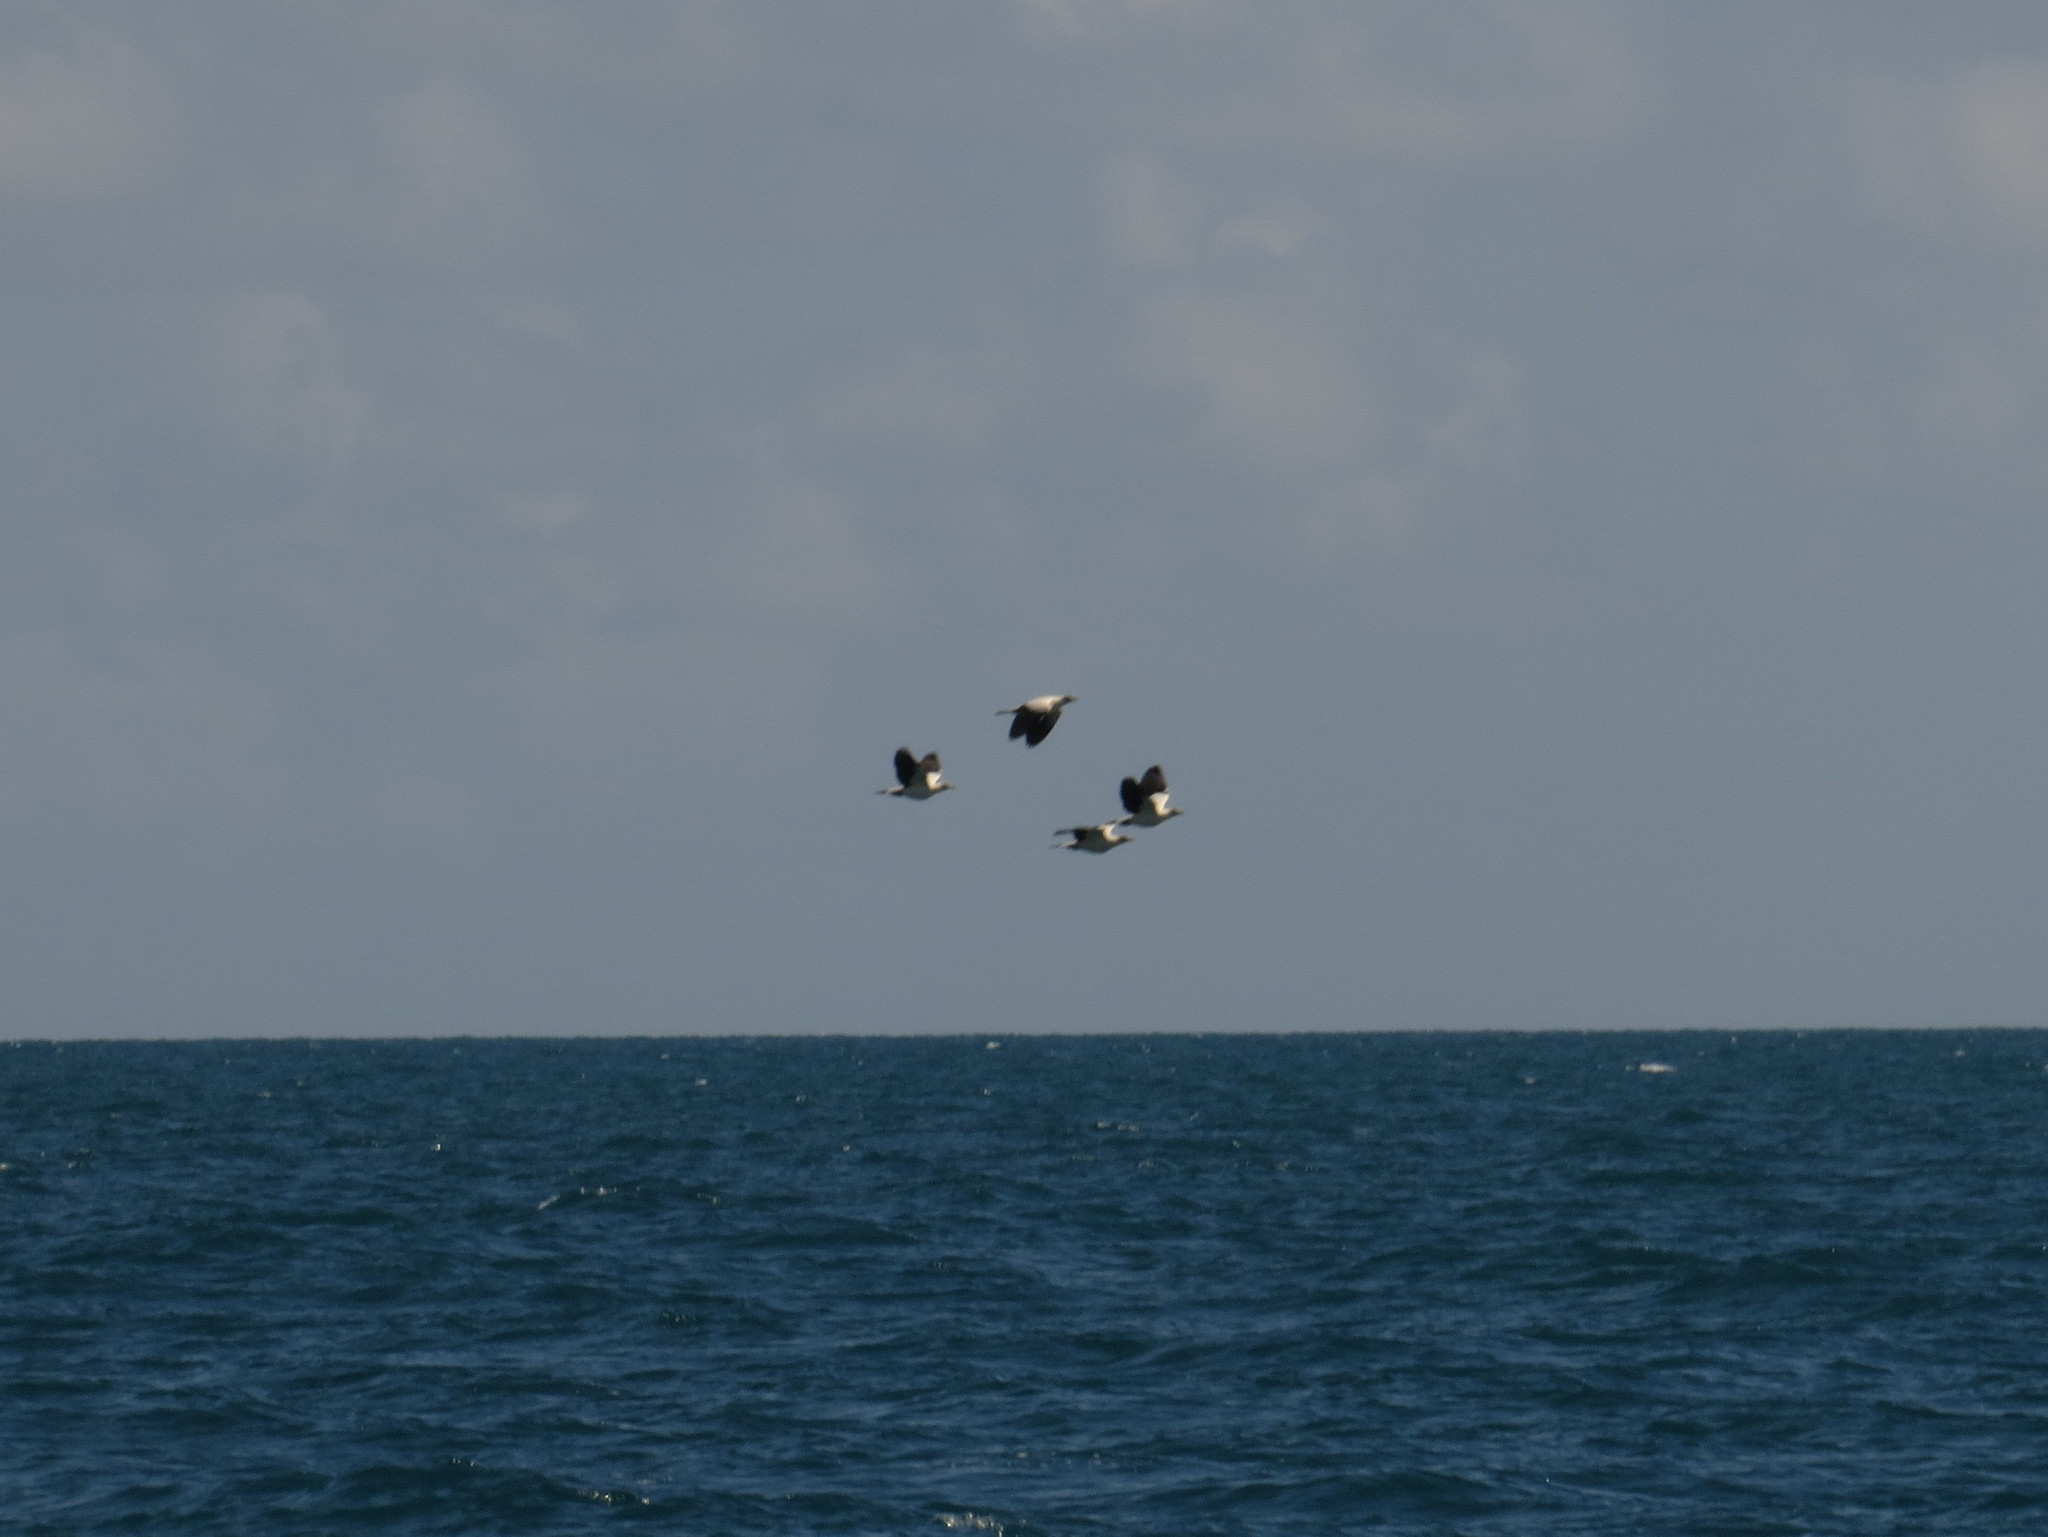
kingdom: Animalia
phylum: Chordata
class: Aves
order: Columbiformes
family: Columbidae
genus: Ducula
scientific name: Ducula spilorrhoa
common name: Torresian imperial pigeon
